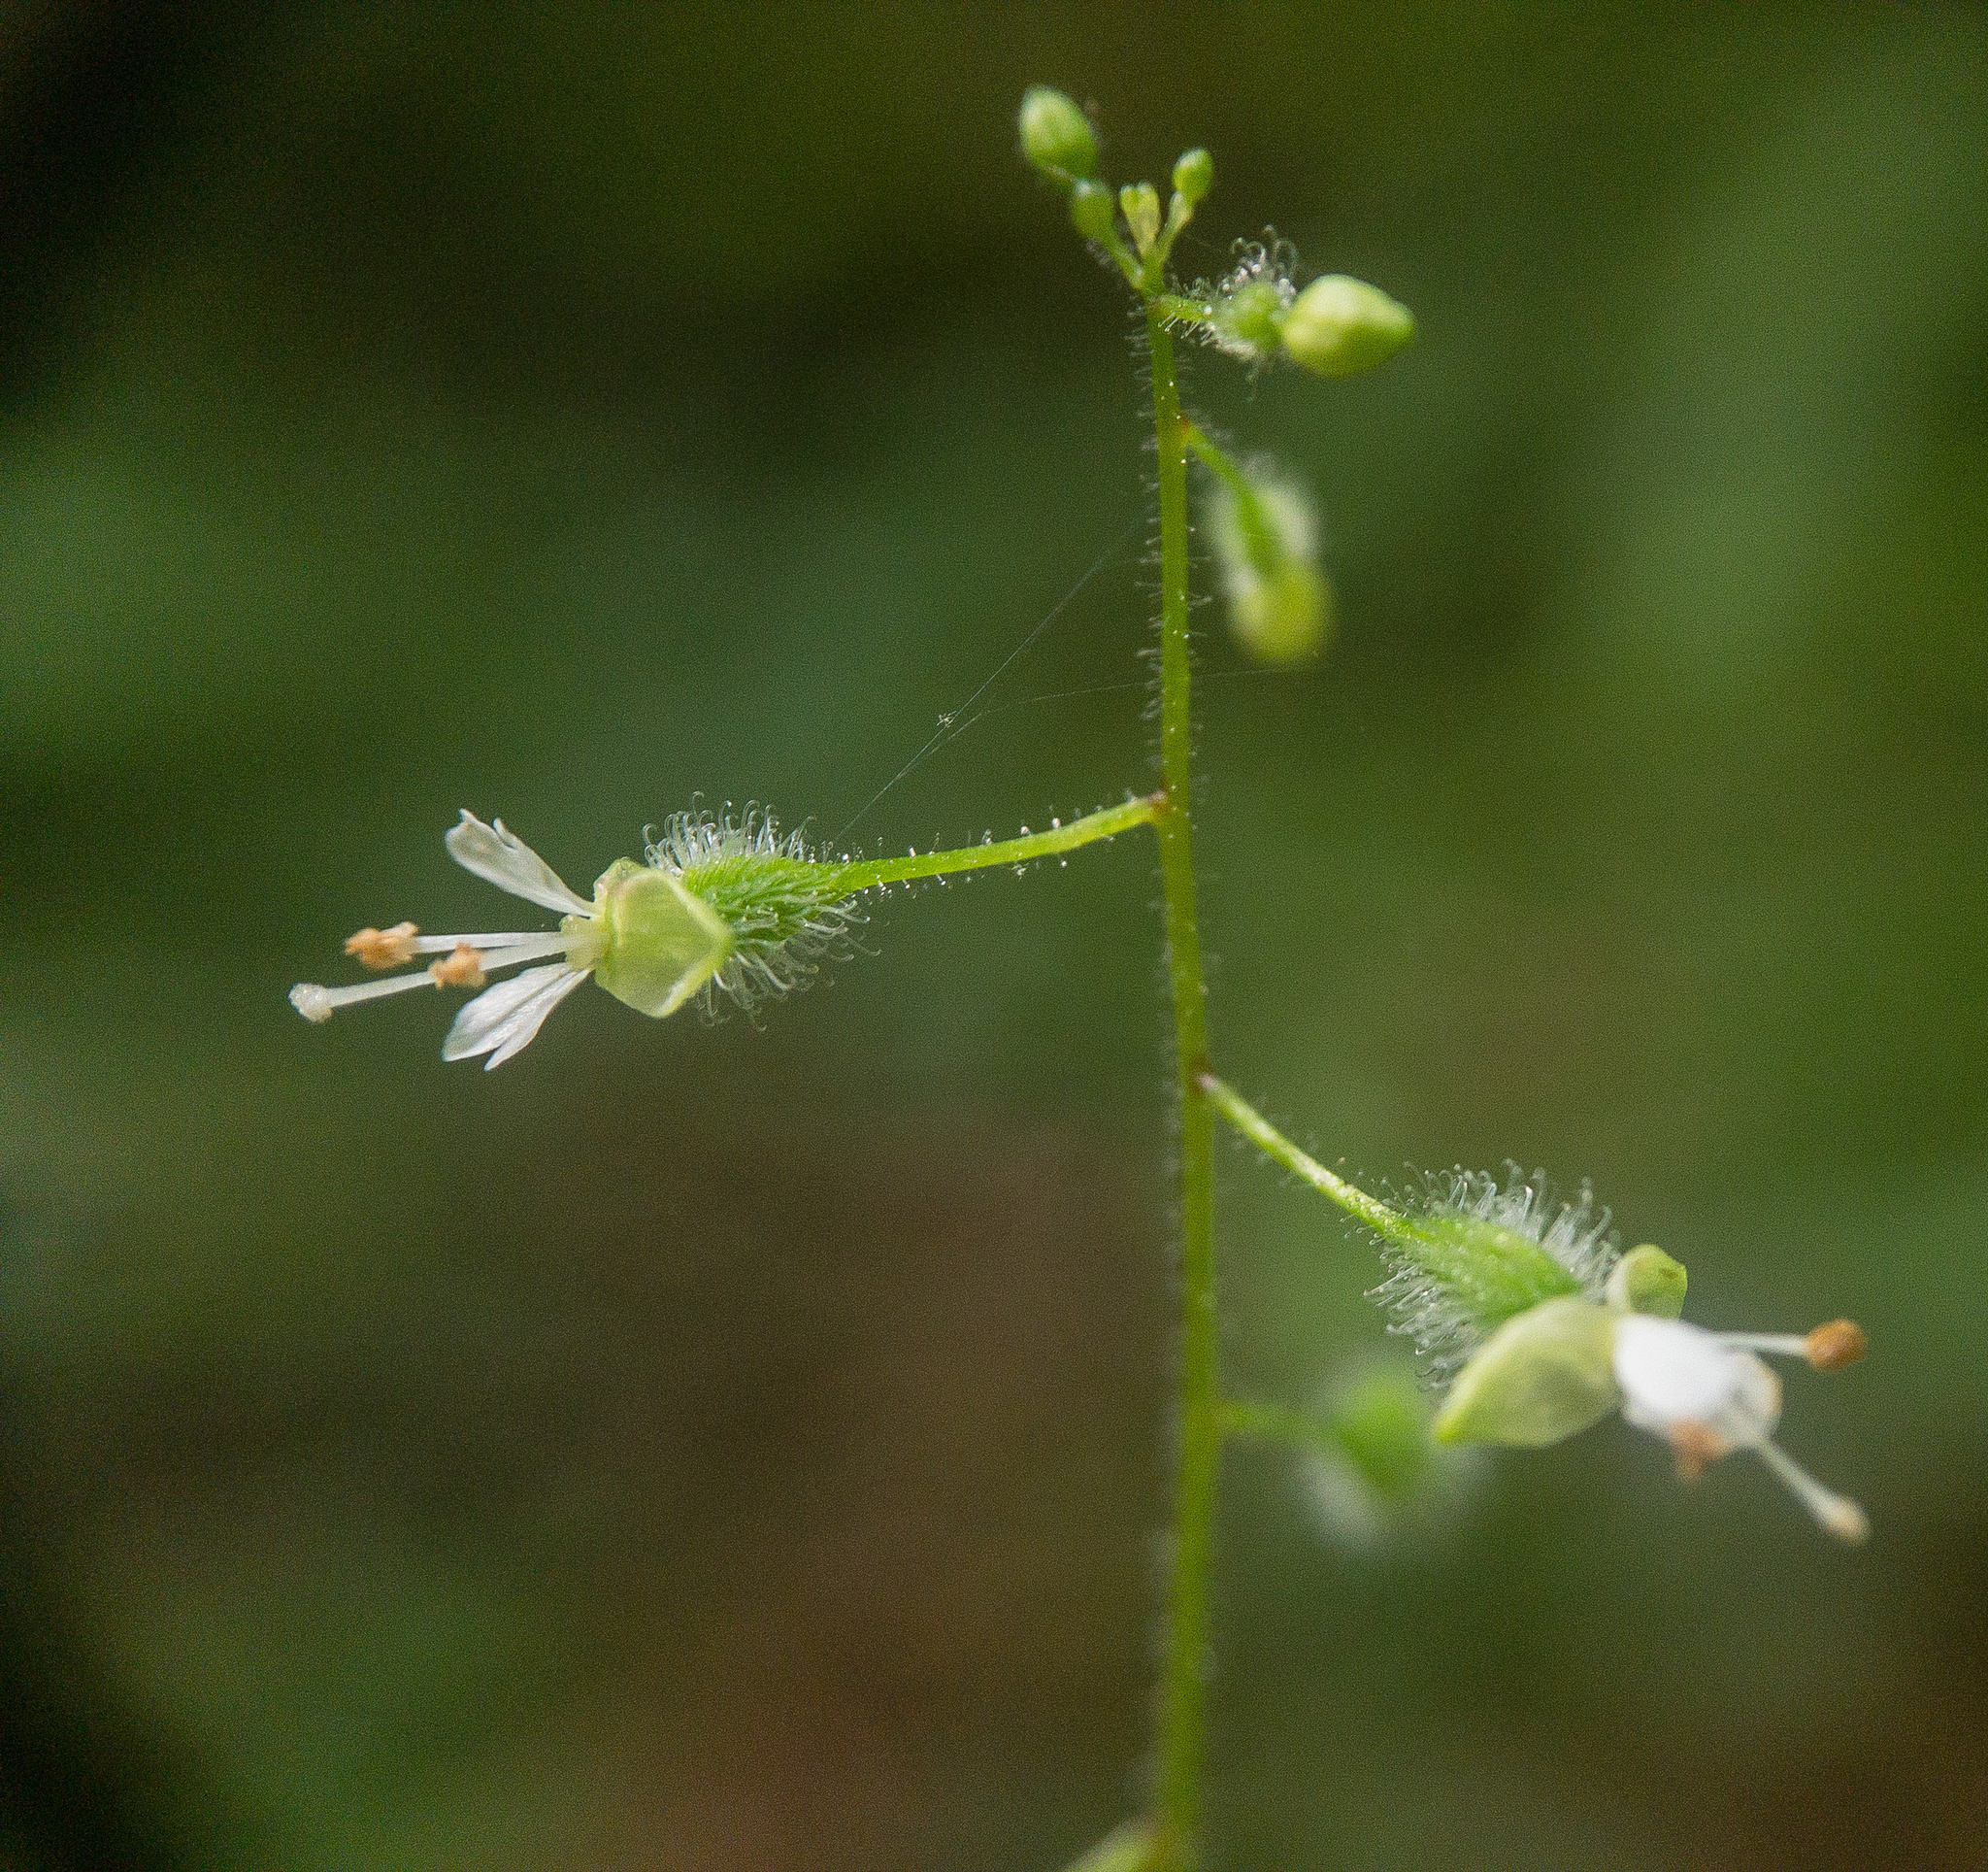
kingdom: Plantae
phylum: Tracheophyta
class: Magnoliopsida
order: Myrtales
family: Onagraceae
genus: Circaea
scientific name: Circaea canadensis
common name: Broad-leaved enchanter's nightshade
